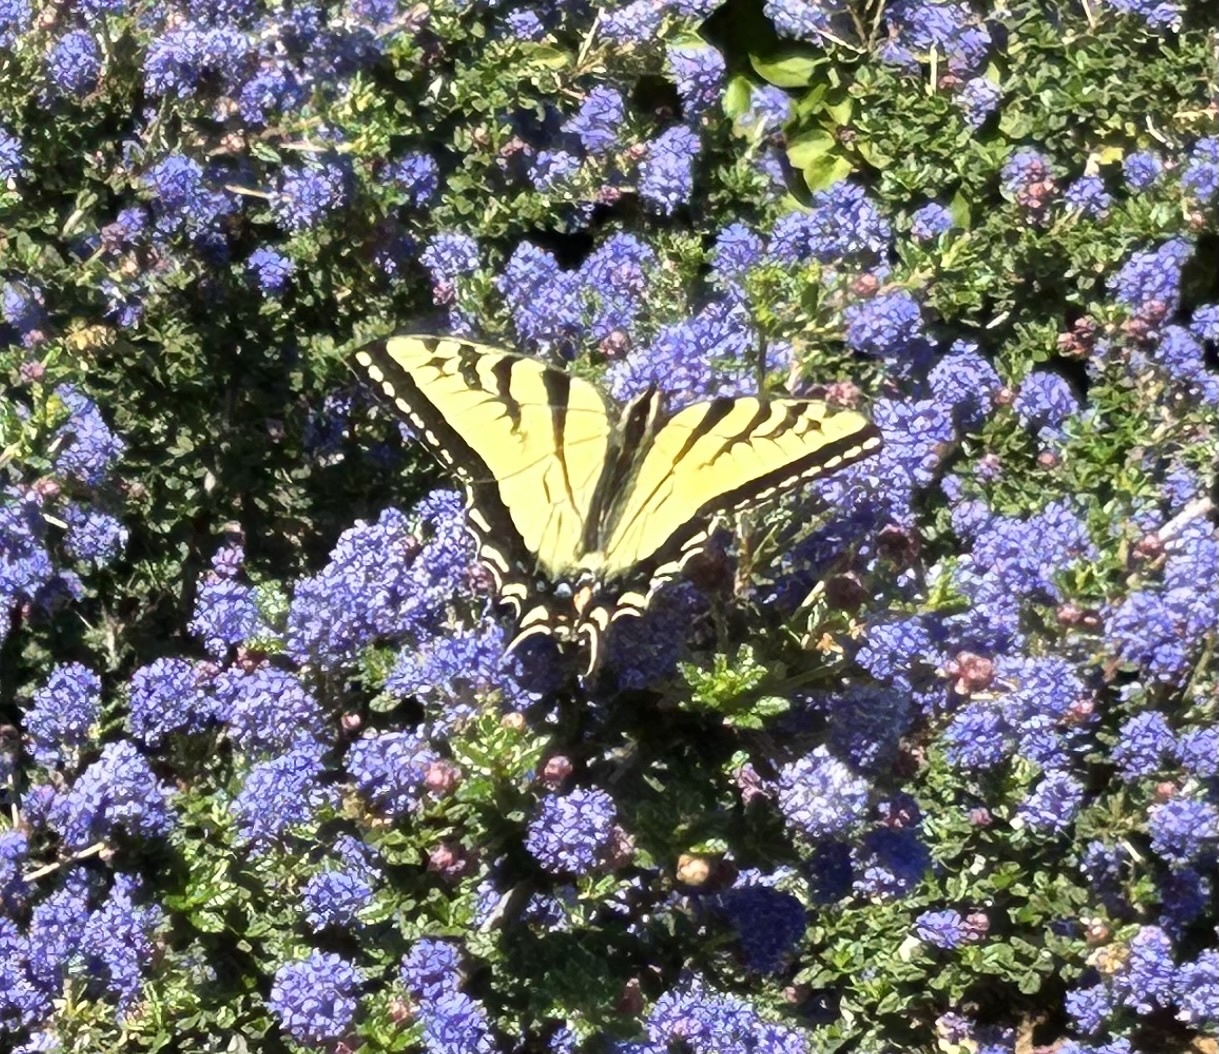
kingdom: Animalia
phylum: Arthropoda
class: Insecta
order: Lepidoptera
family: Papilionidae
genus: Papilio
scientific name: Papilio rutulus
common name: Western tiger swallowtail
